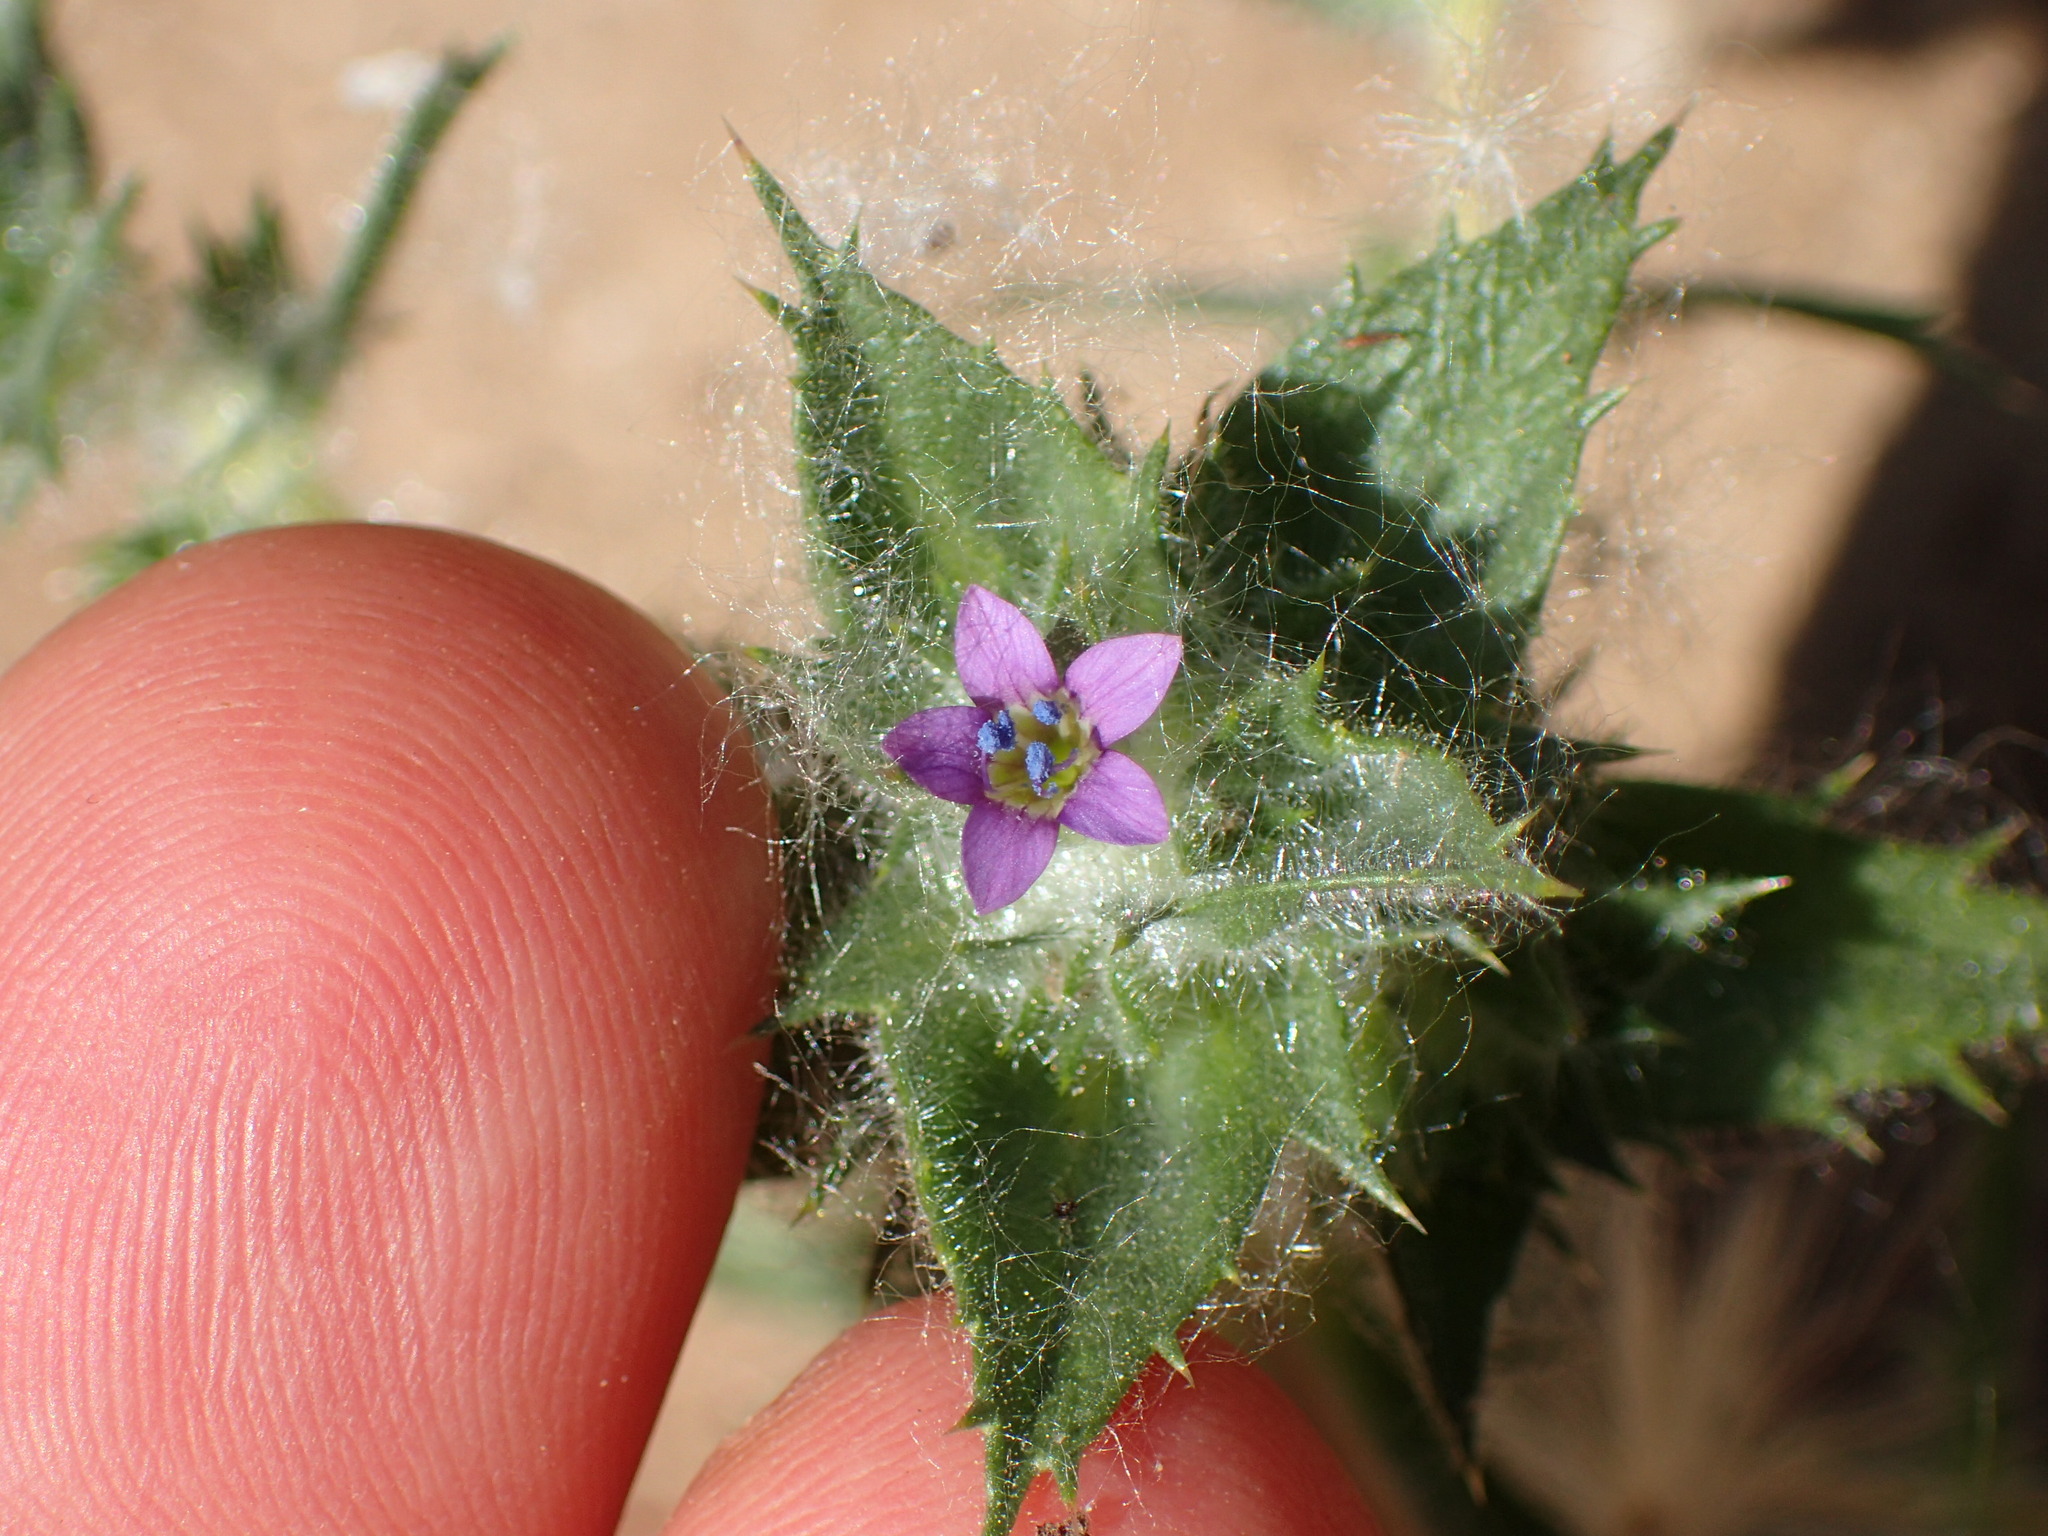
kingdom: Plantae
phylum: Tracheophyta
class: Magnoliopsida
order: Ericales
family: Polemoniaceae
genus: Navarretia
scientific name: Navarretia atractyloides
